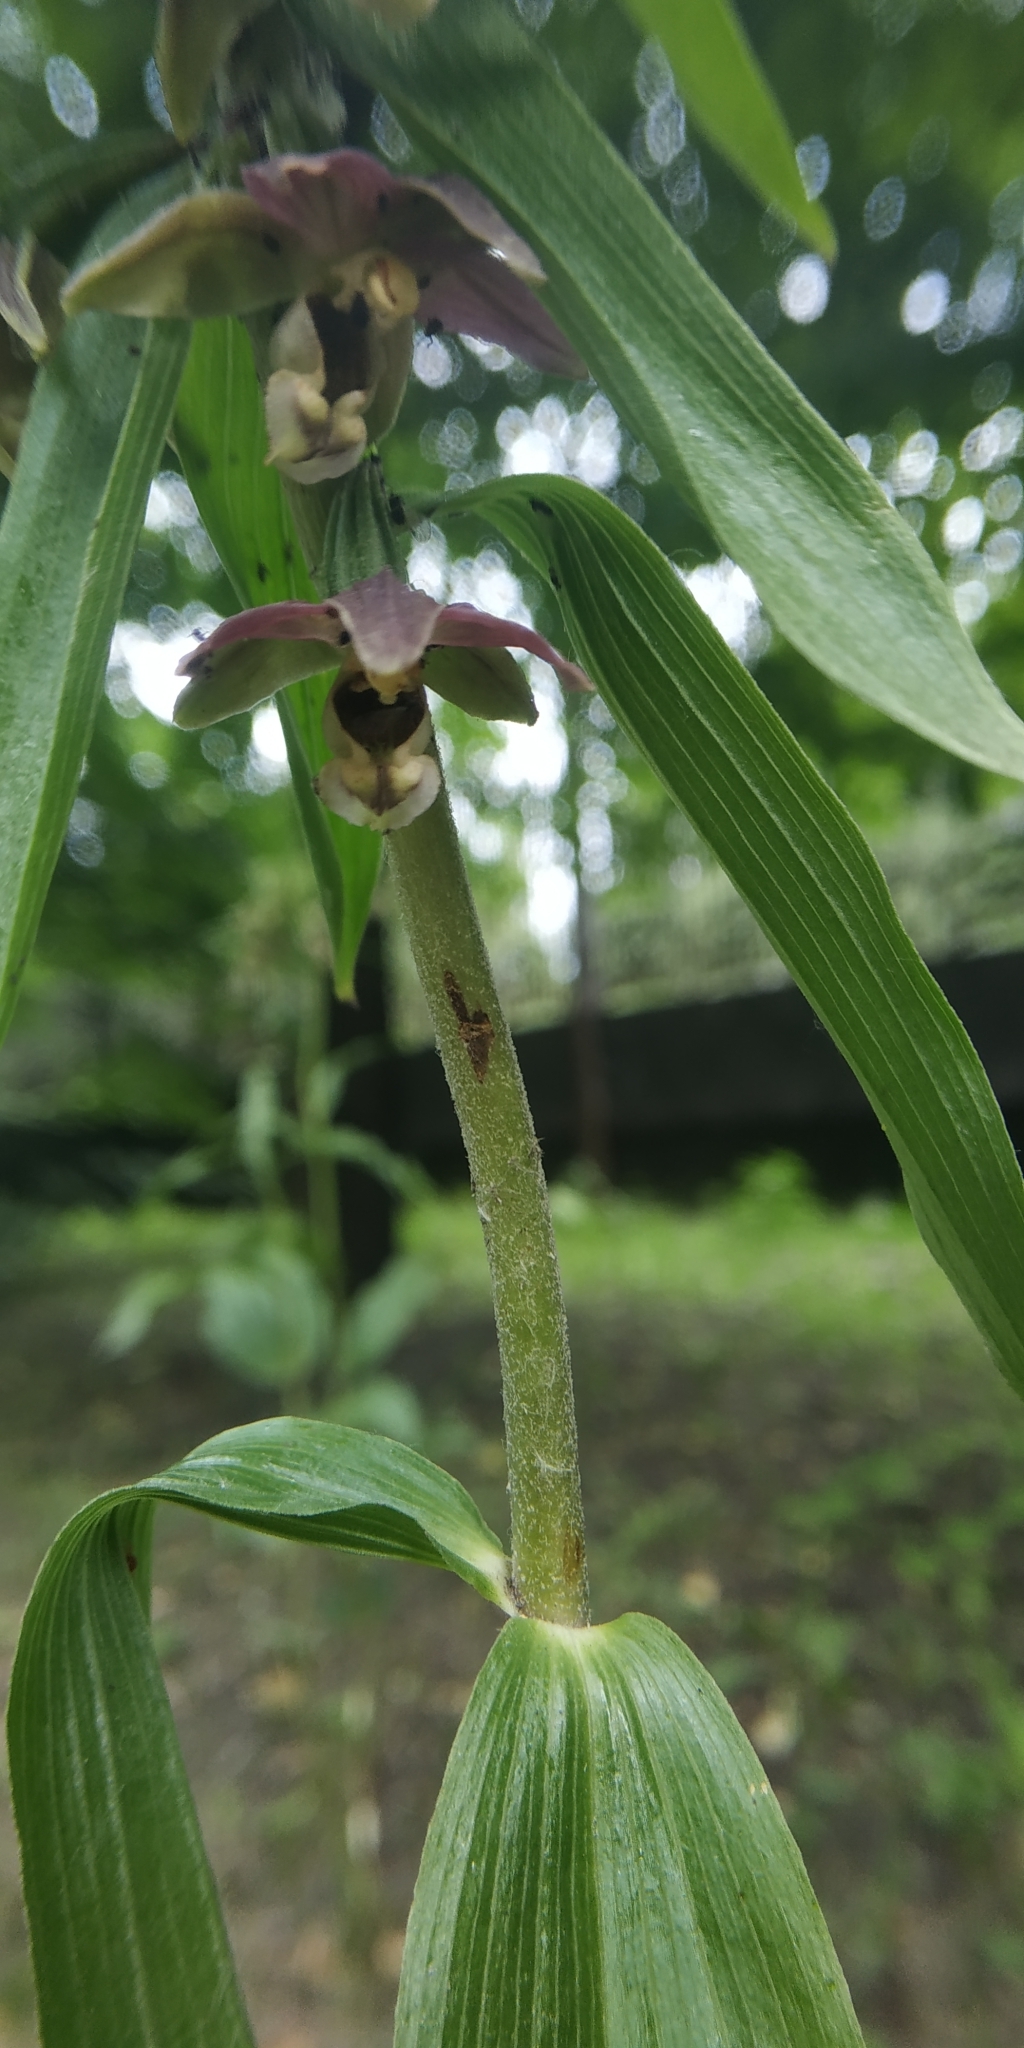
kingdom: Plantae
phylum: Tracheophyta
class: Liliopsida
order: Asparagales
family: Orchidaceae
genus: Epipactis
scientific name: Epipactis helleborine
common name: Broad-leaved helleborine
